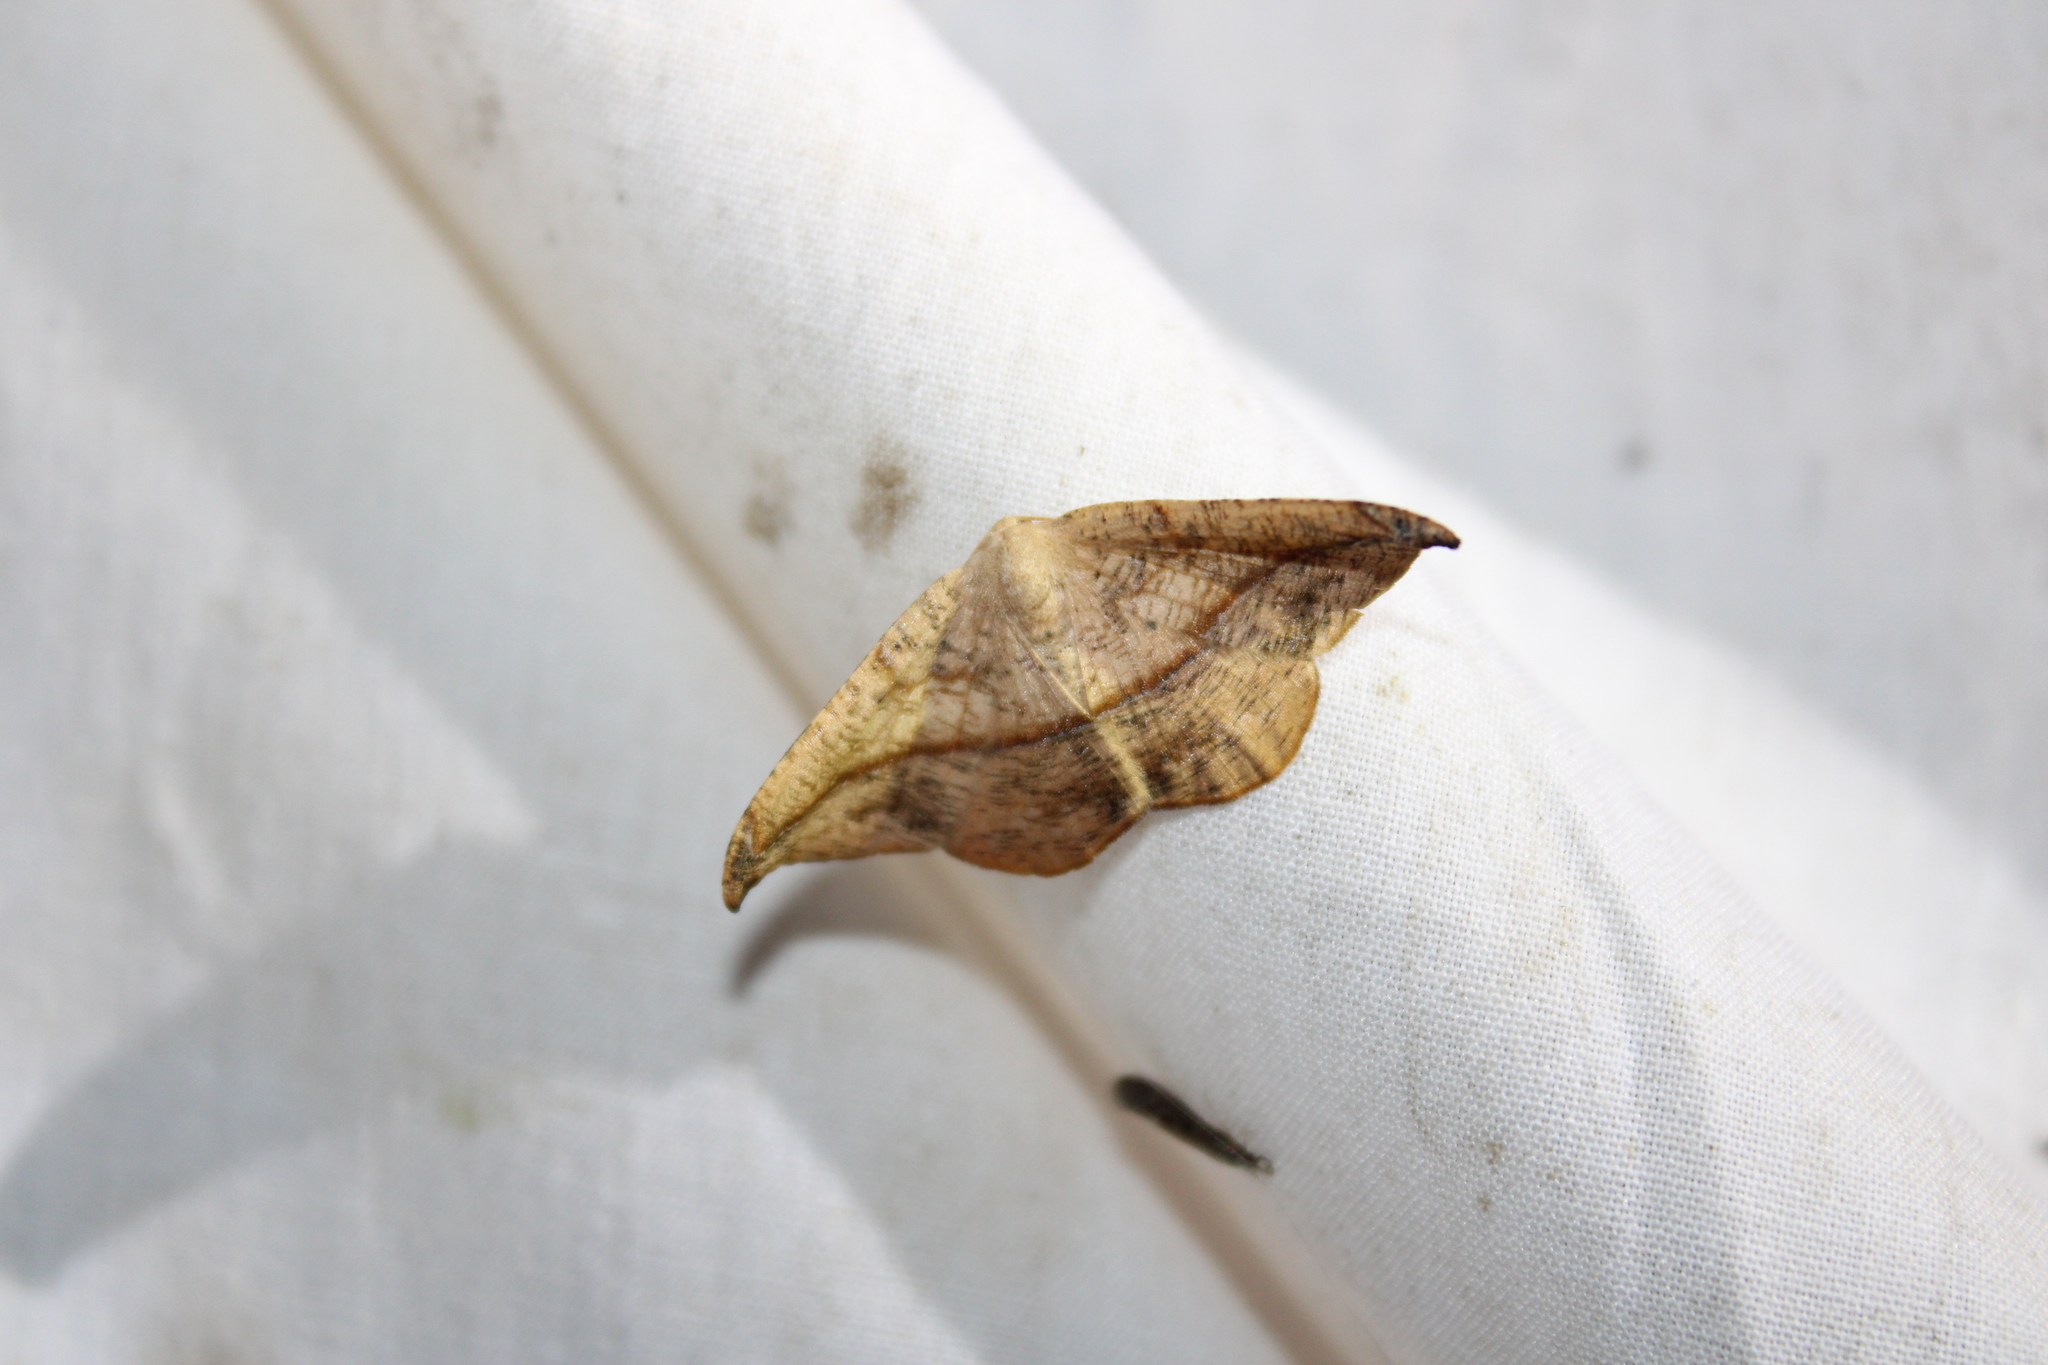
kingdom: Animalia
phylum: Arthropoda
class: Insecta
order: Lepidoptera
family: Geometridae
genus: Patalene
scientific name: Patalene olyzonaria
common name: Juniper geometer moth
